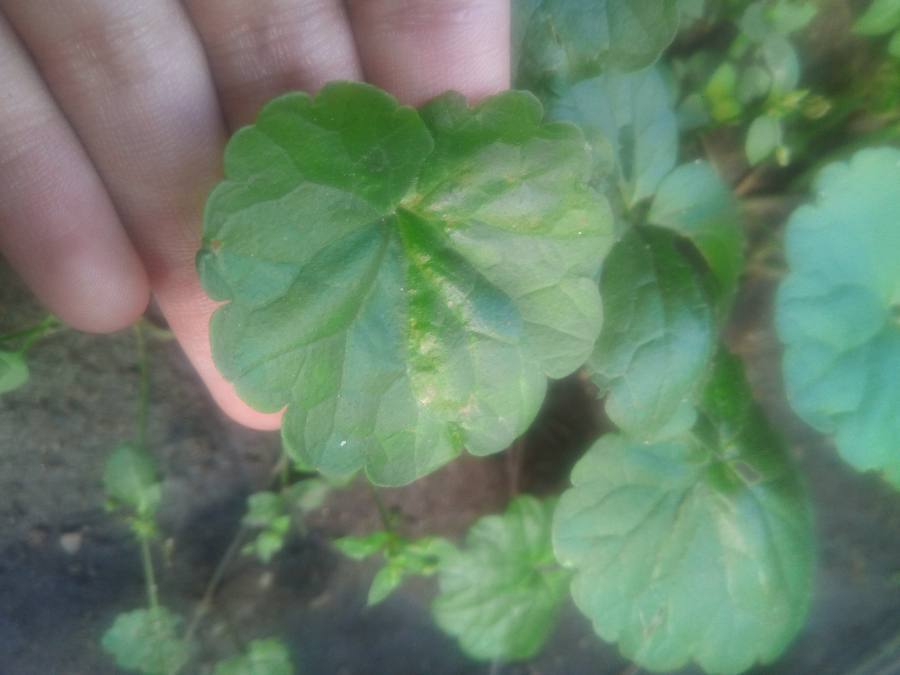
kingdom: Plantae
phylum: Tracheophyta
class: Magnoliopsida
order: Lamiales
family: Lamiaceae
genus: Glechoma
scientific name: Glechoma hederacea
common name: Ground ivy
